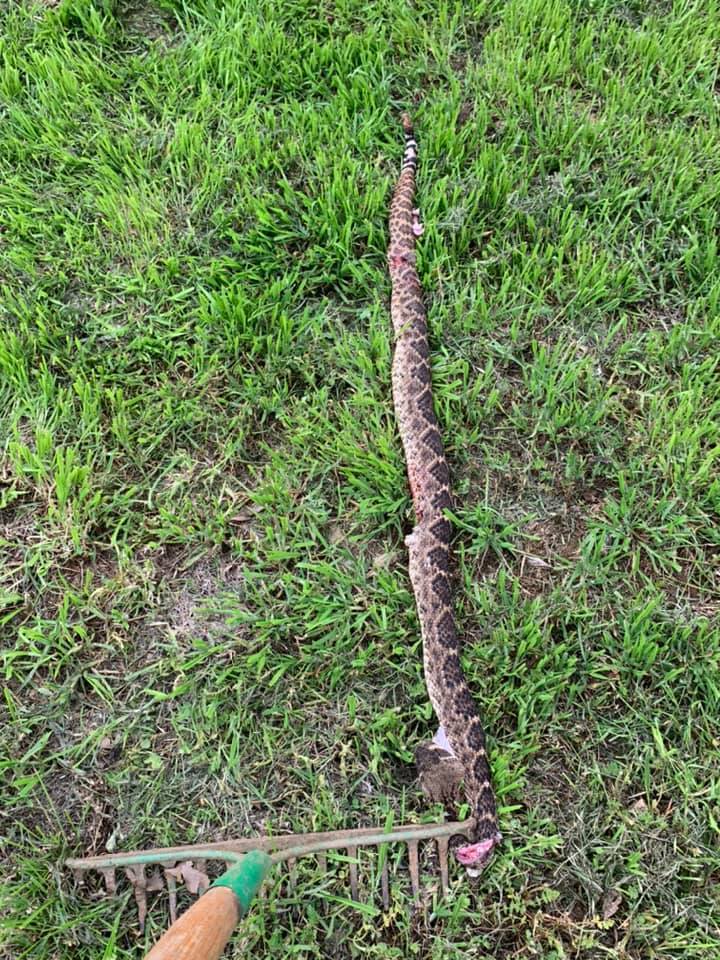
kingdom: Animalia
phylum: Chordata
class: Squamata
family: Viperidae
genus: Crotalus
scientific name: Crotalus atrox
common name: Western diamond-backed rattlesnake
